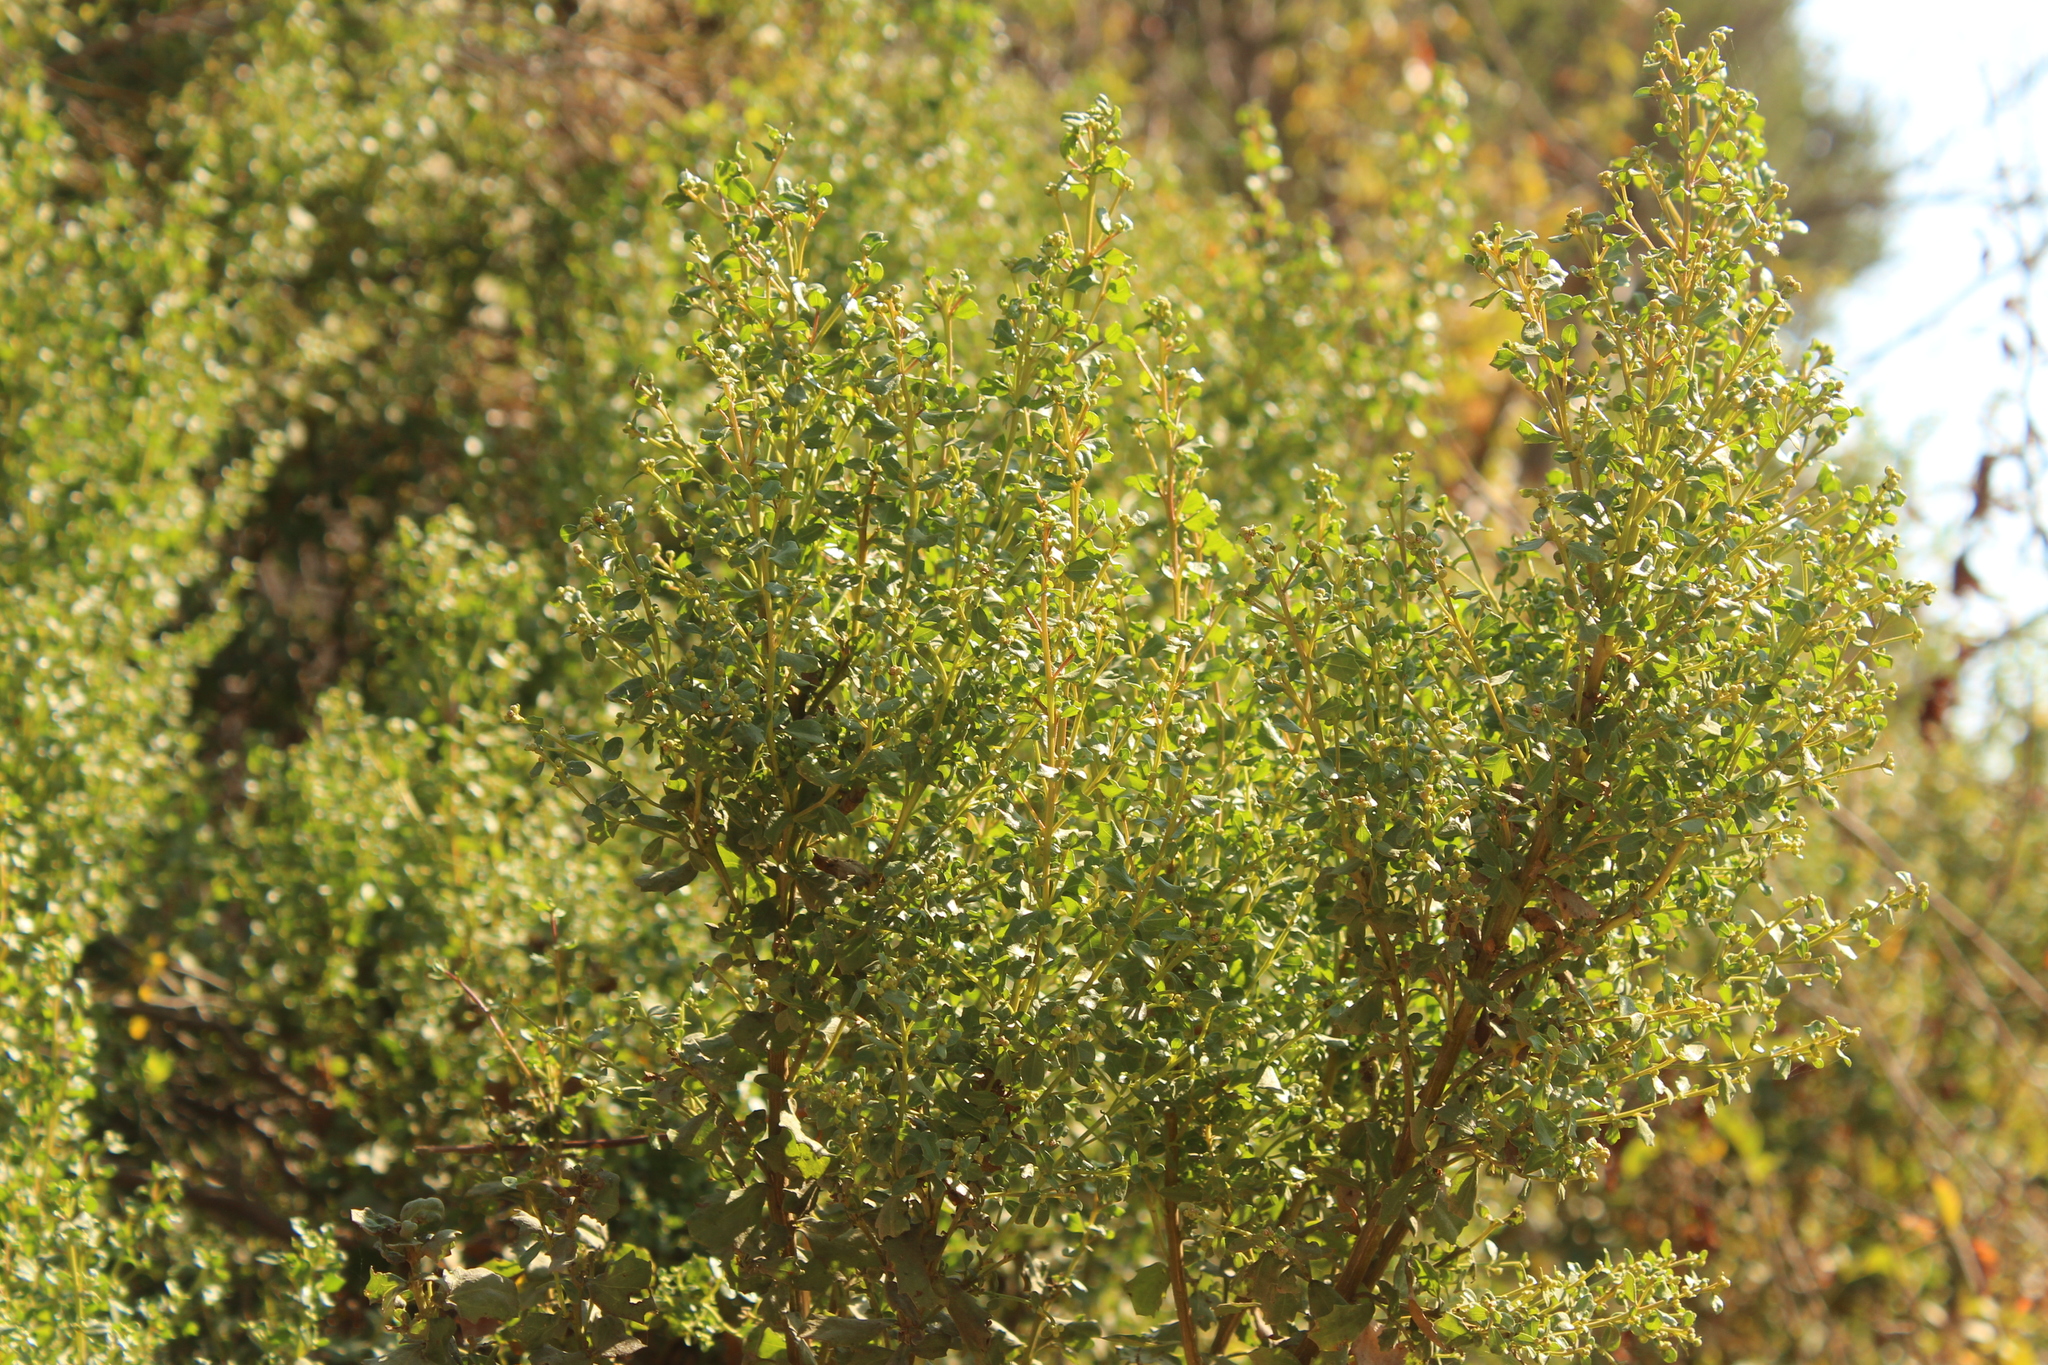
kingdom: Plantae
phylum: Tracheophyta
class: Magnoliopsida
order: Asterales
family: Asteraceae
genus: Baccharis
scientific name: Baccharis pilularis
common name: Coyotebrush
